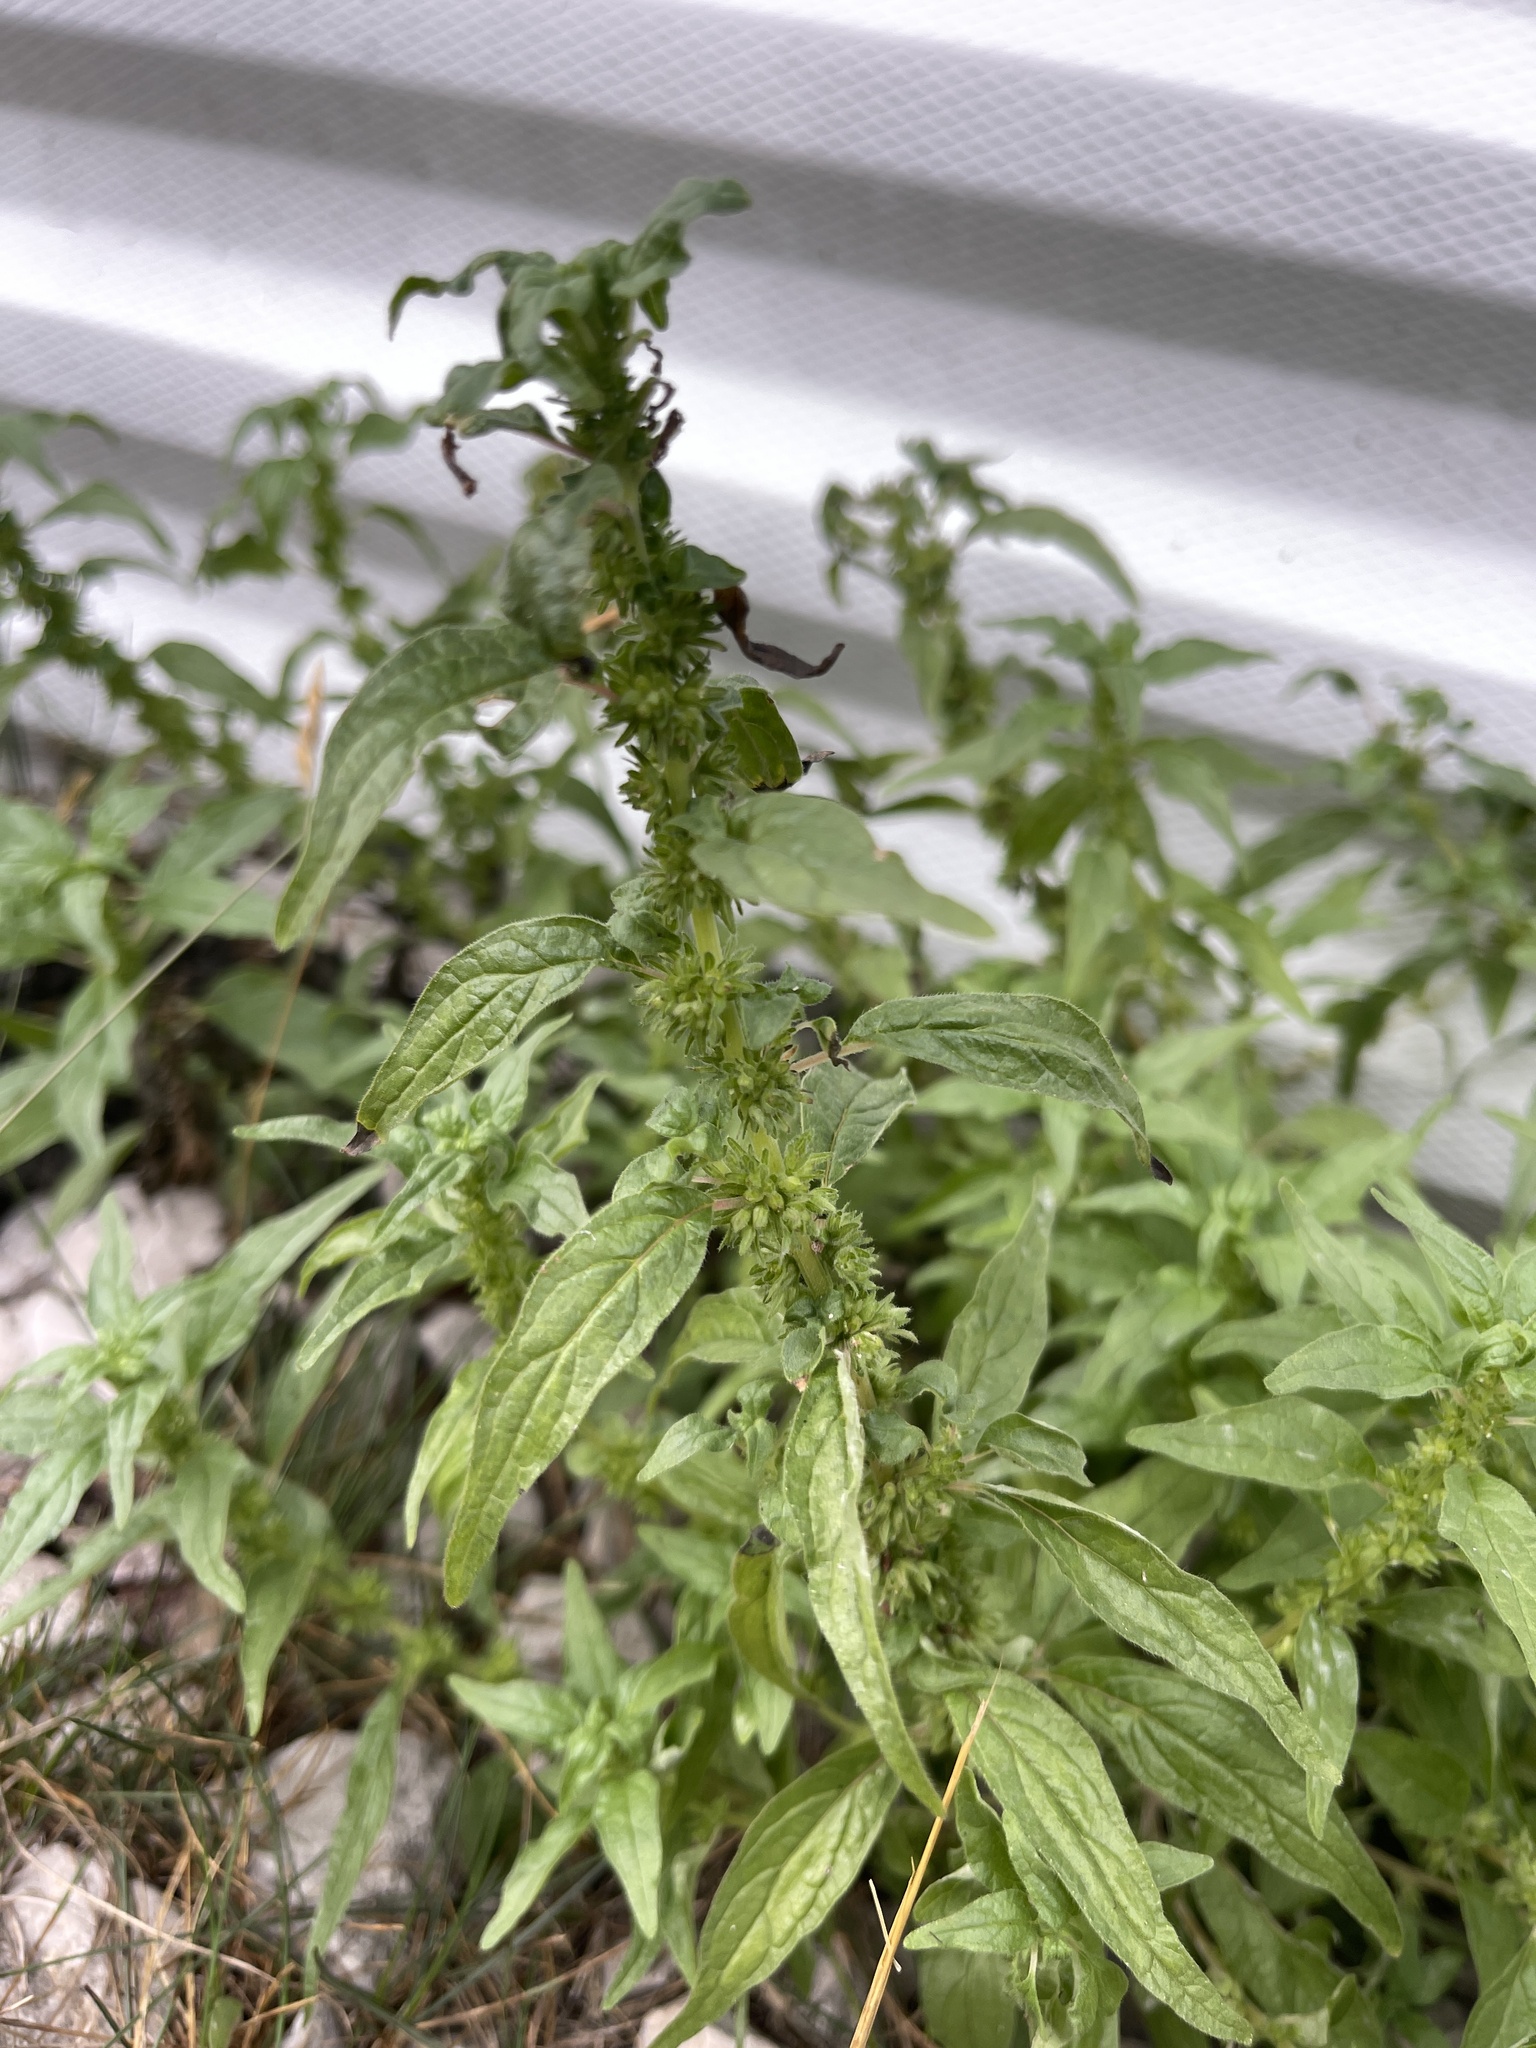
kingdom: Plantae
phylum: Tracheophyta
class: Magnoliopsida
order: Rosales
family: Urticaceae
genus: Parietaria
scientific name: Parietaria pensylvanica
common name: Pennsylvania pellitory
